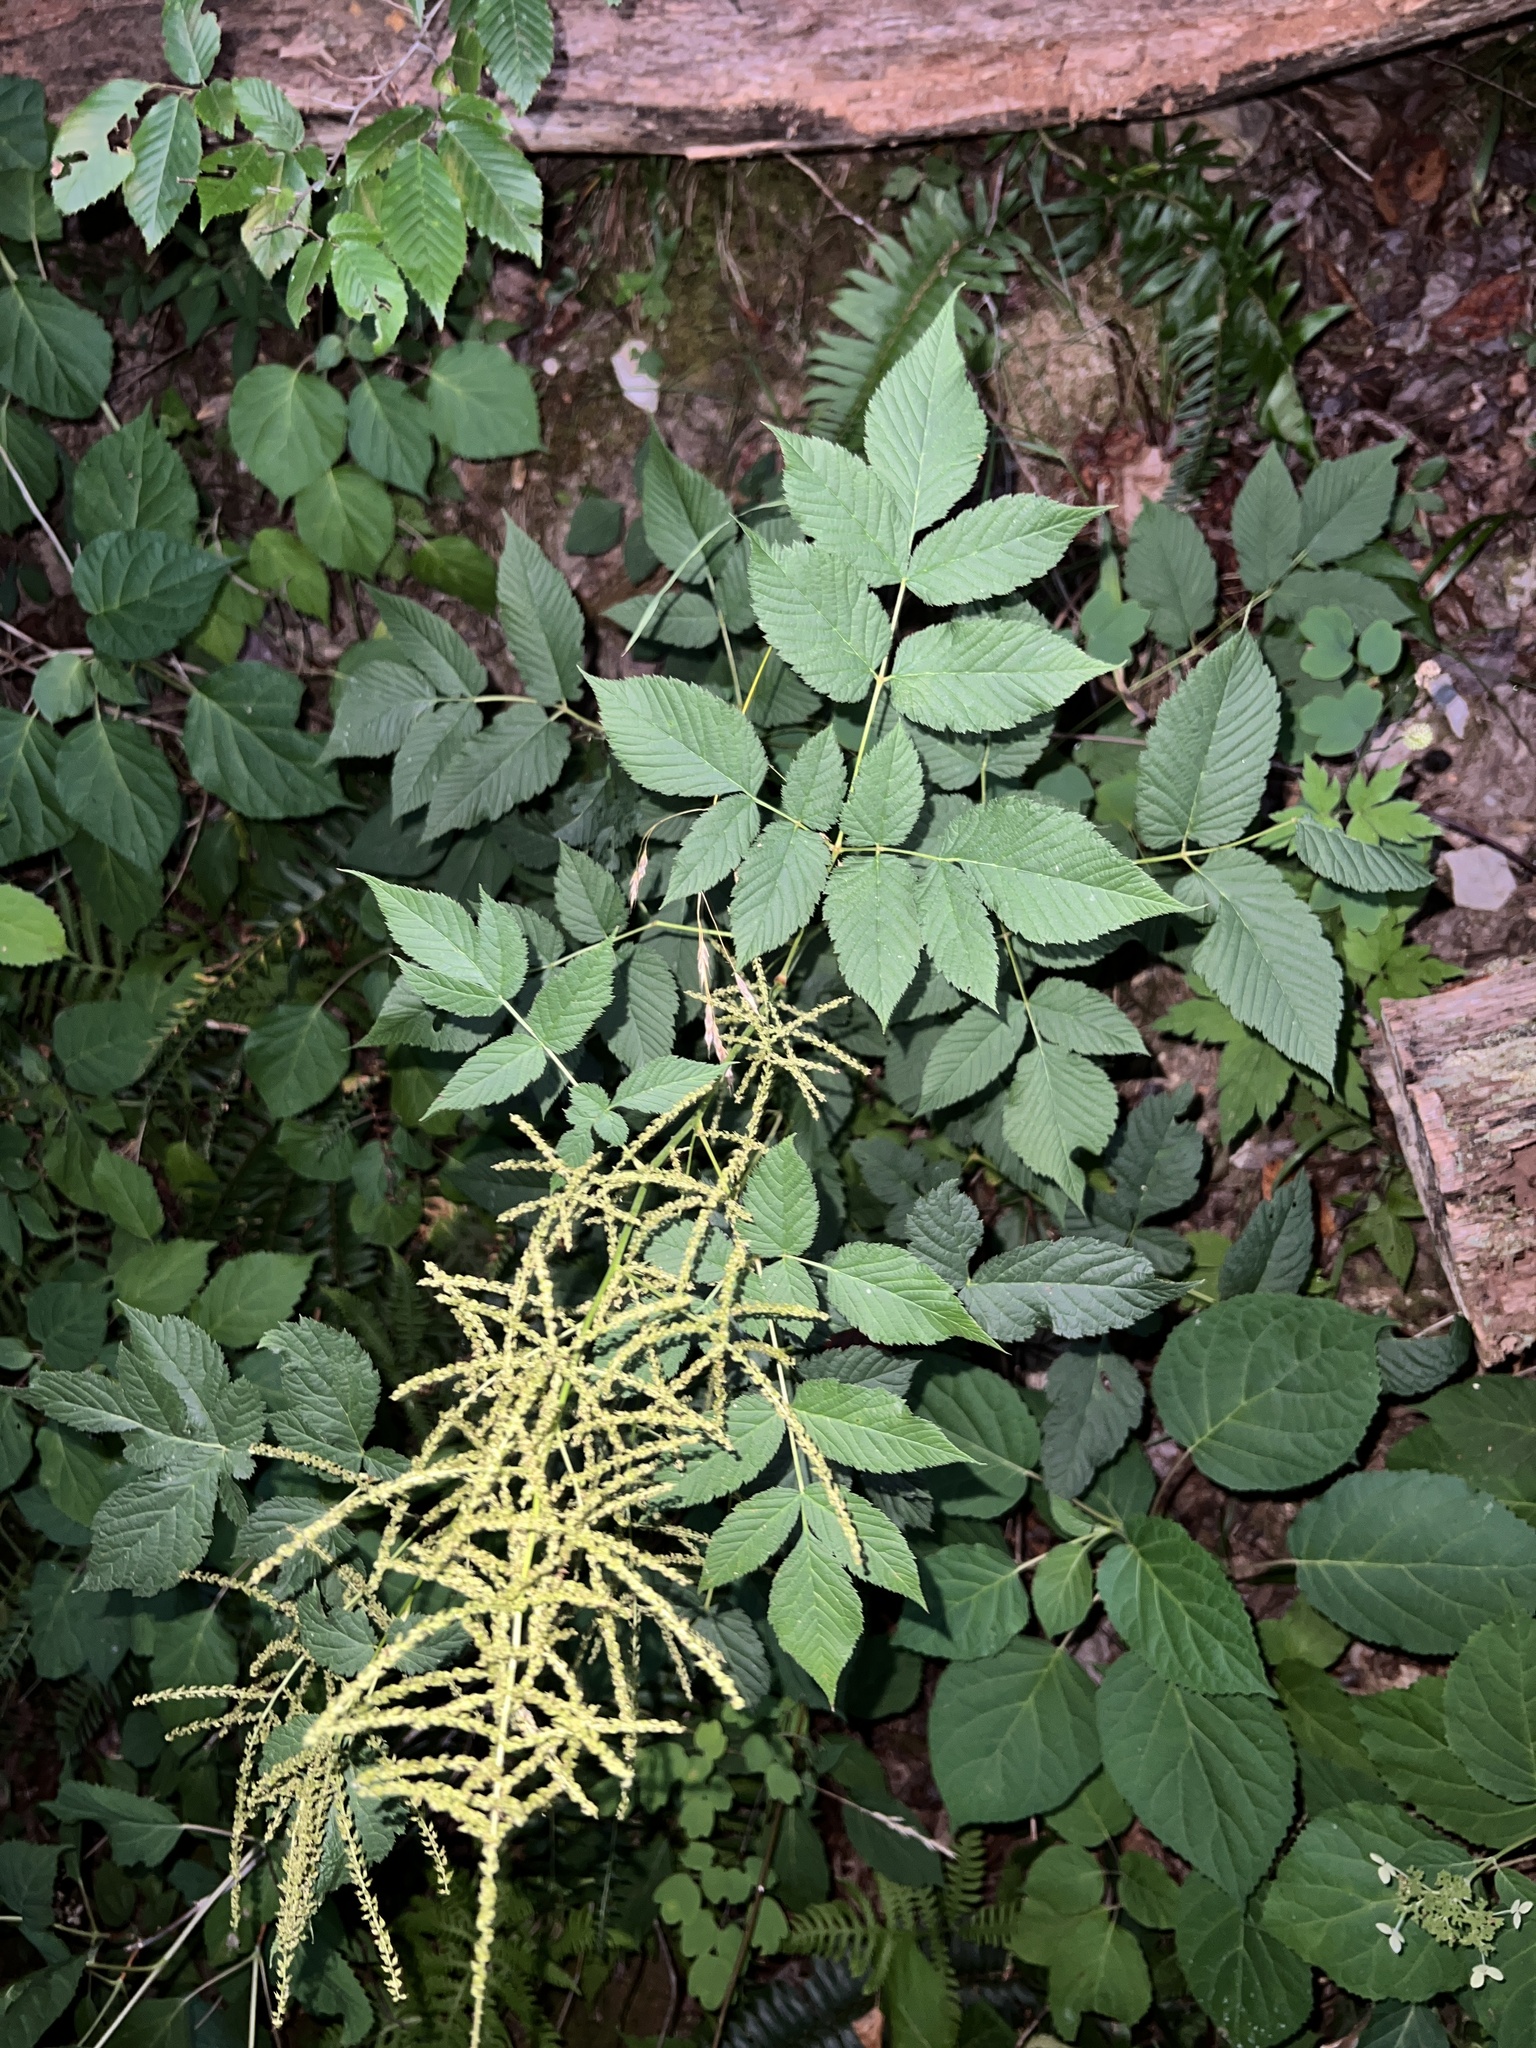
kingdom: Plantae
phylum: Tracheophyta
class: Magnoliopsida
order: Rosales
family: Rosaceae
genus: Aruncus
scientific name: Aruncus dioicus
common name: Buck's-beard
